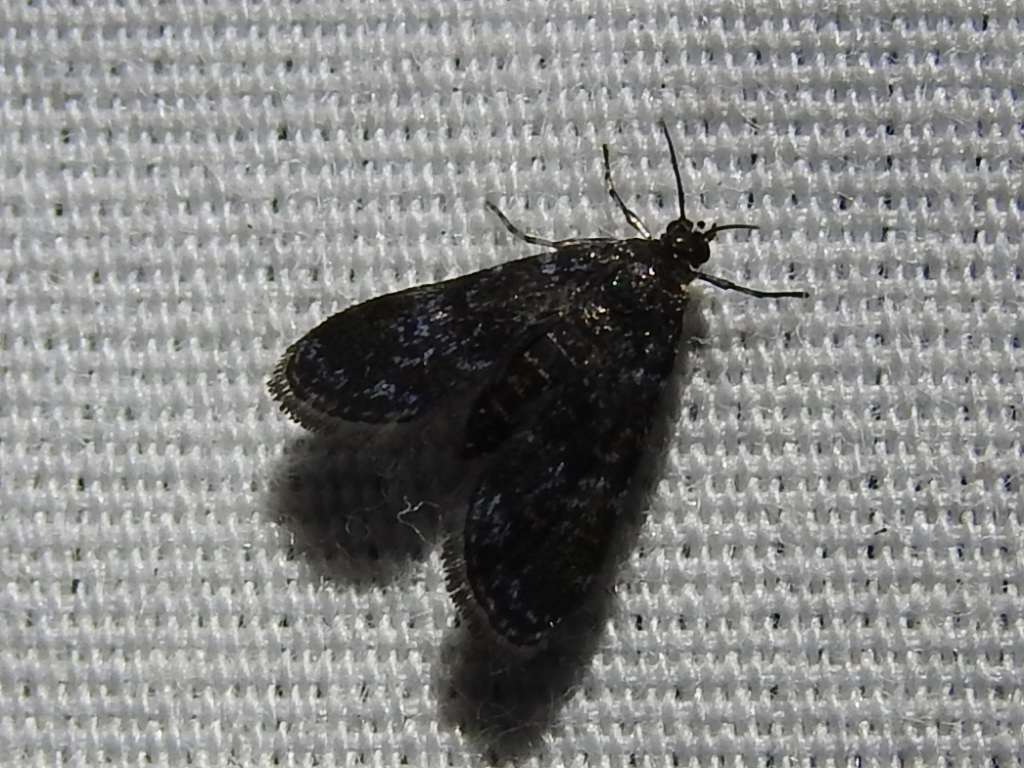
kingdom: Animalia
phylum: Arthropoda
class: Insecta
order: Lepidoptera
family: Crambidae
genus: Elophila
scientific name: Elophila tinealis
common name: Black duckweed moth
